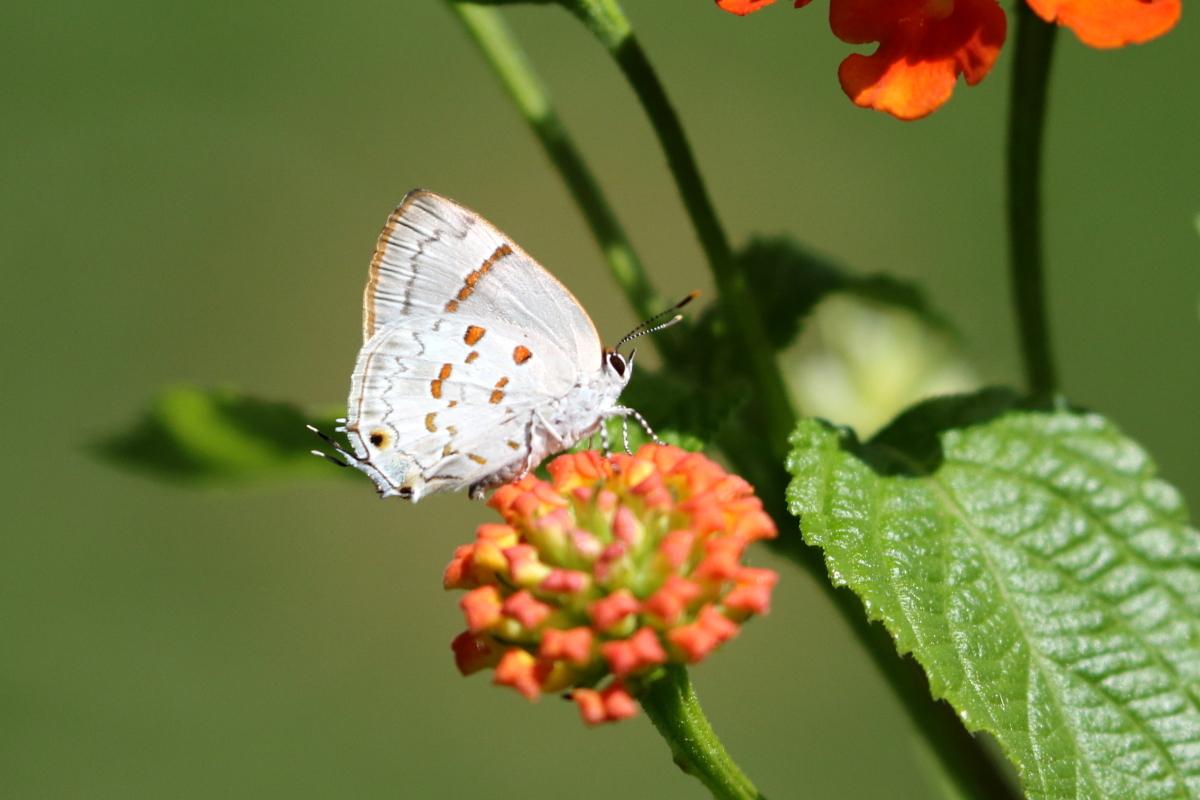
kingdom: Animalia
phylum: Arthropoda
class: Insecta
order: Lepidoptera
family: Lycaenidae
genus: Tmolus
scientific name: Tmolus echion
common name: Red-spotted hairstreak
